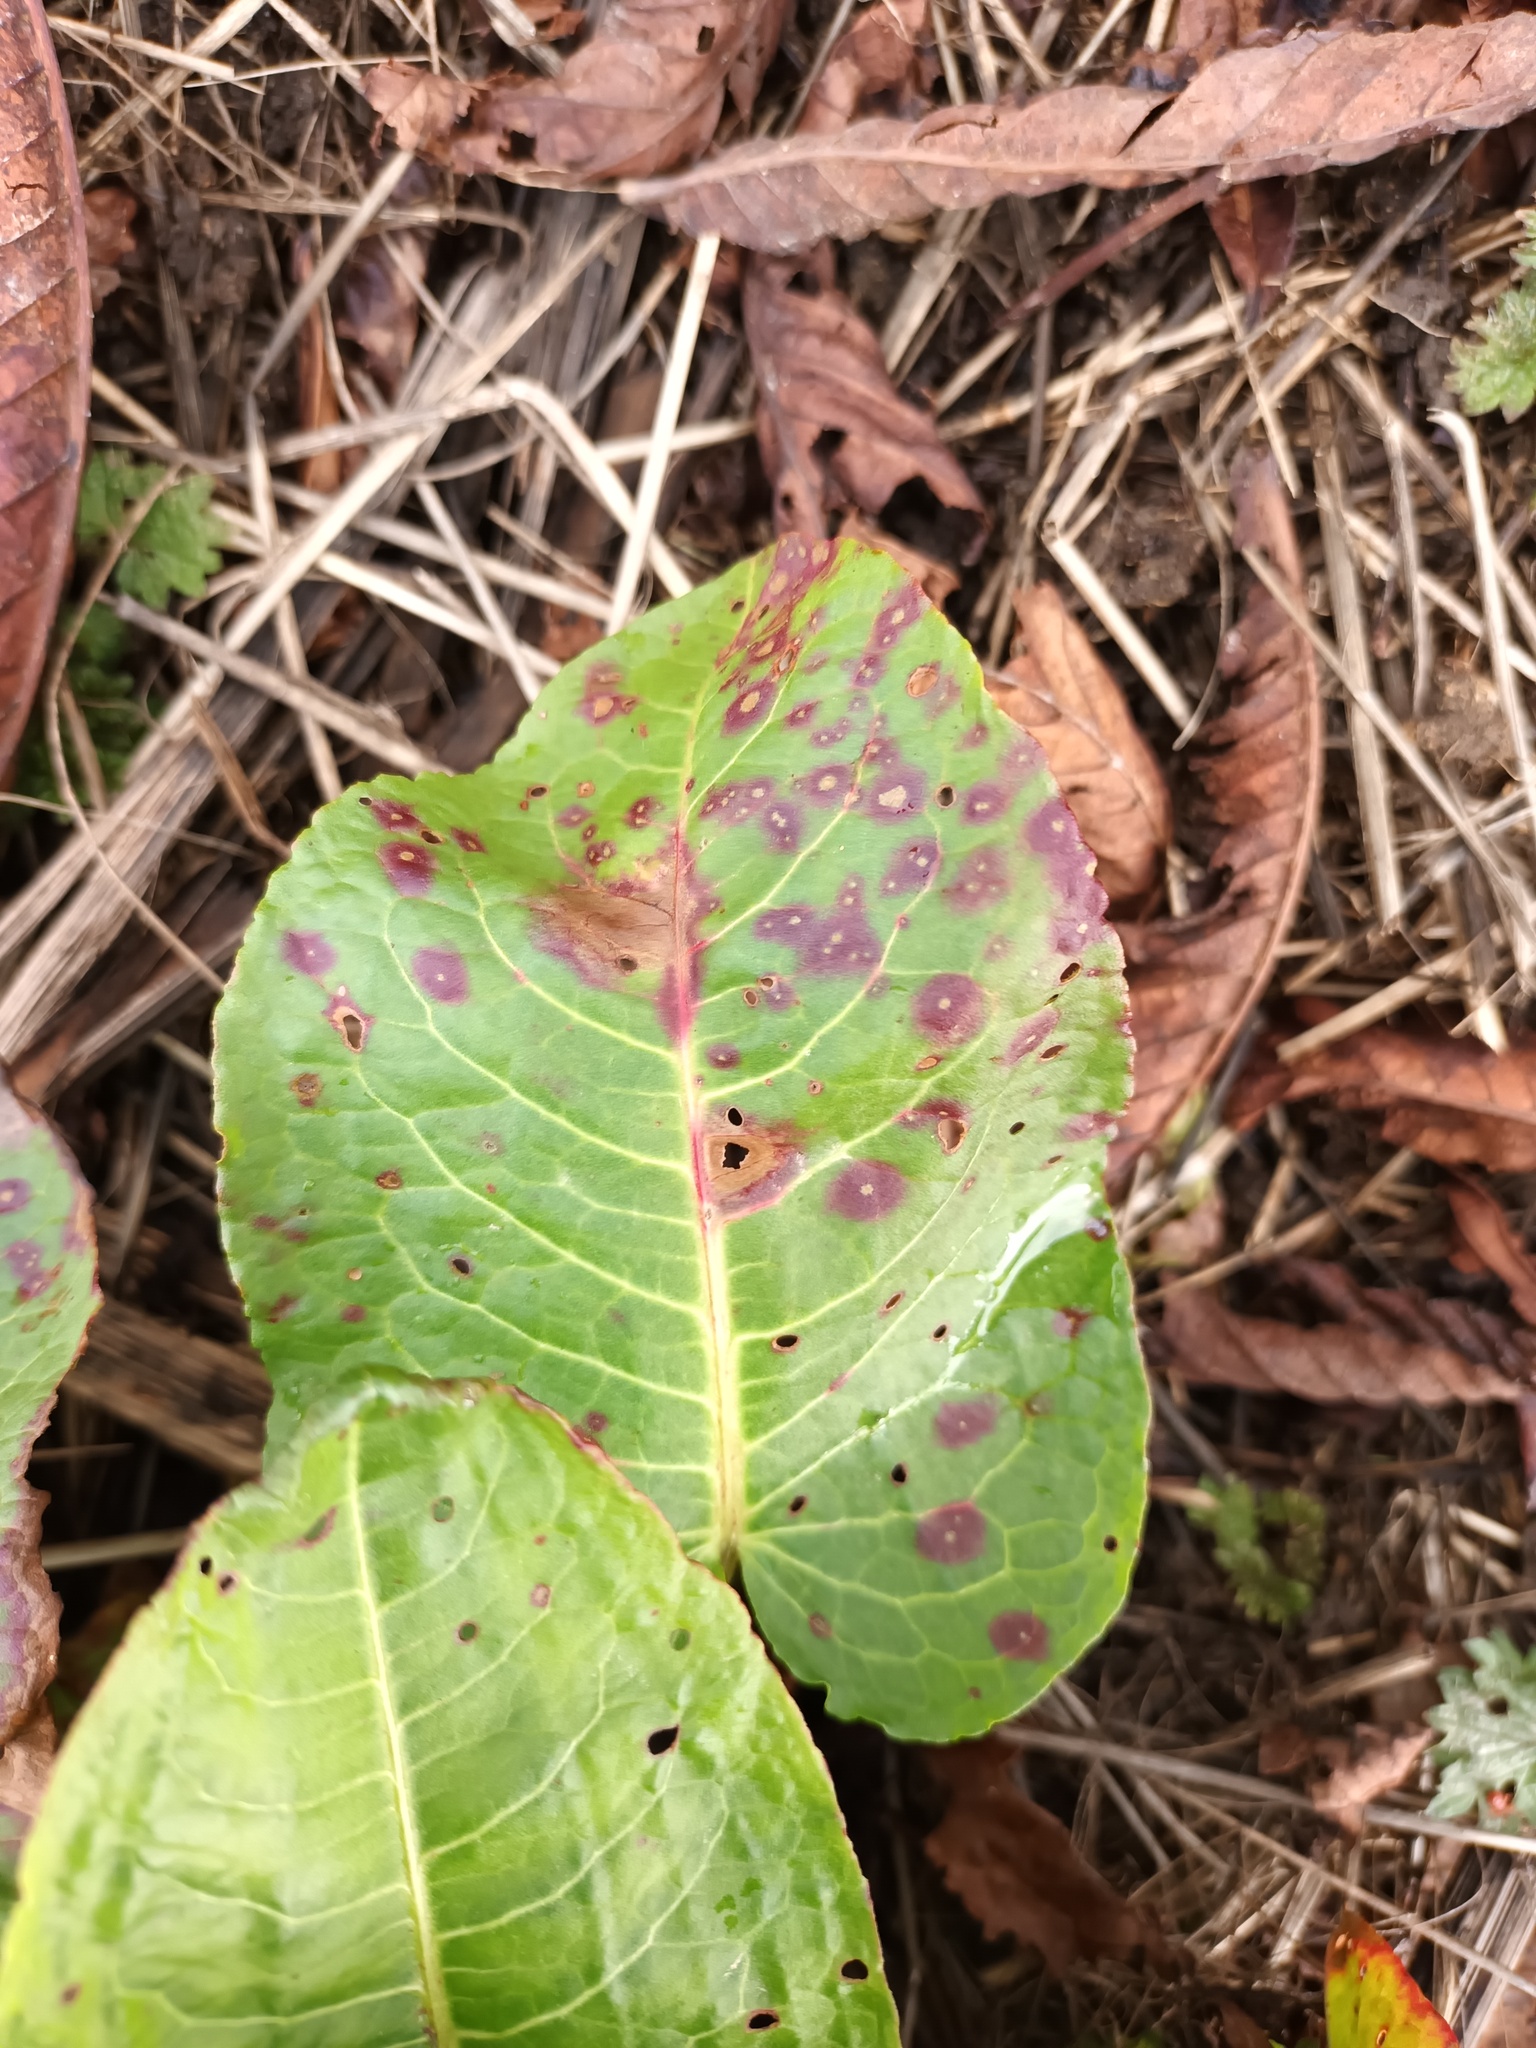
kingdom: Fungi
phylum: Ascomycota
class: Dothideomycetes
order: Mycosphaerellales
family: Mycosphaerellaceae
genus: Ramularia
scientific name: Ramularia rubella
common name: Red dock spot
